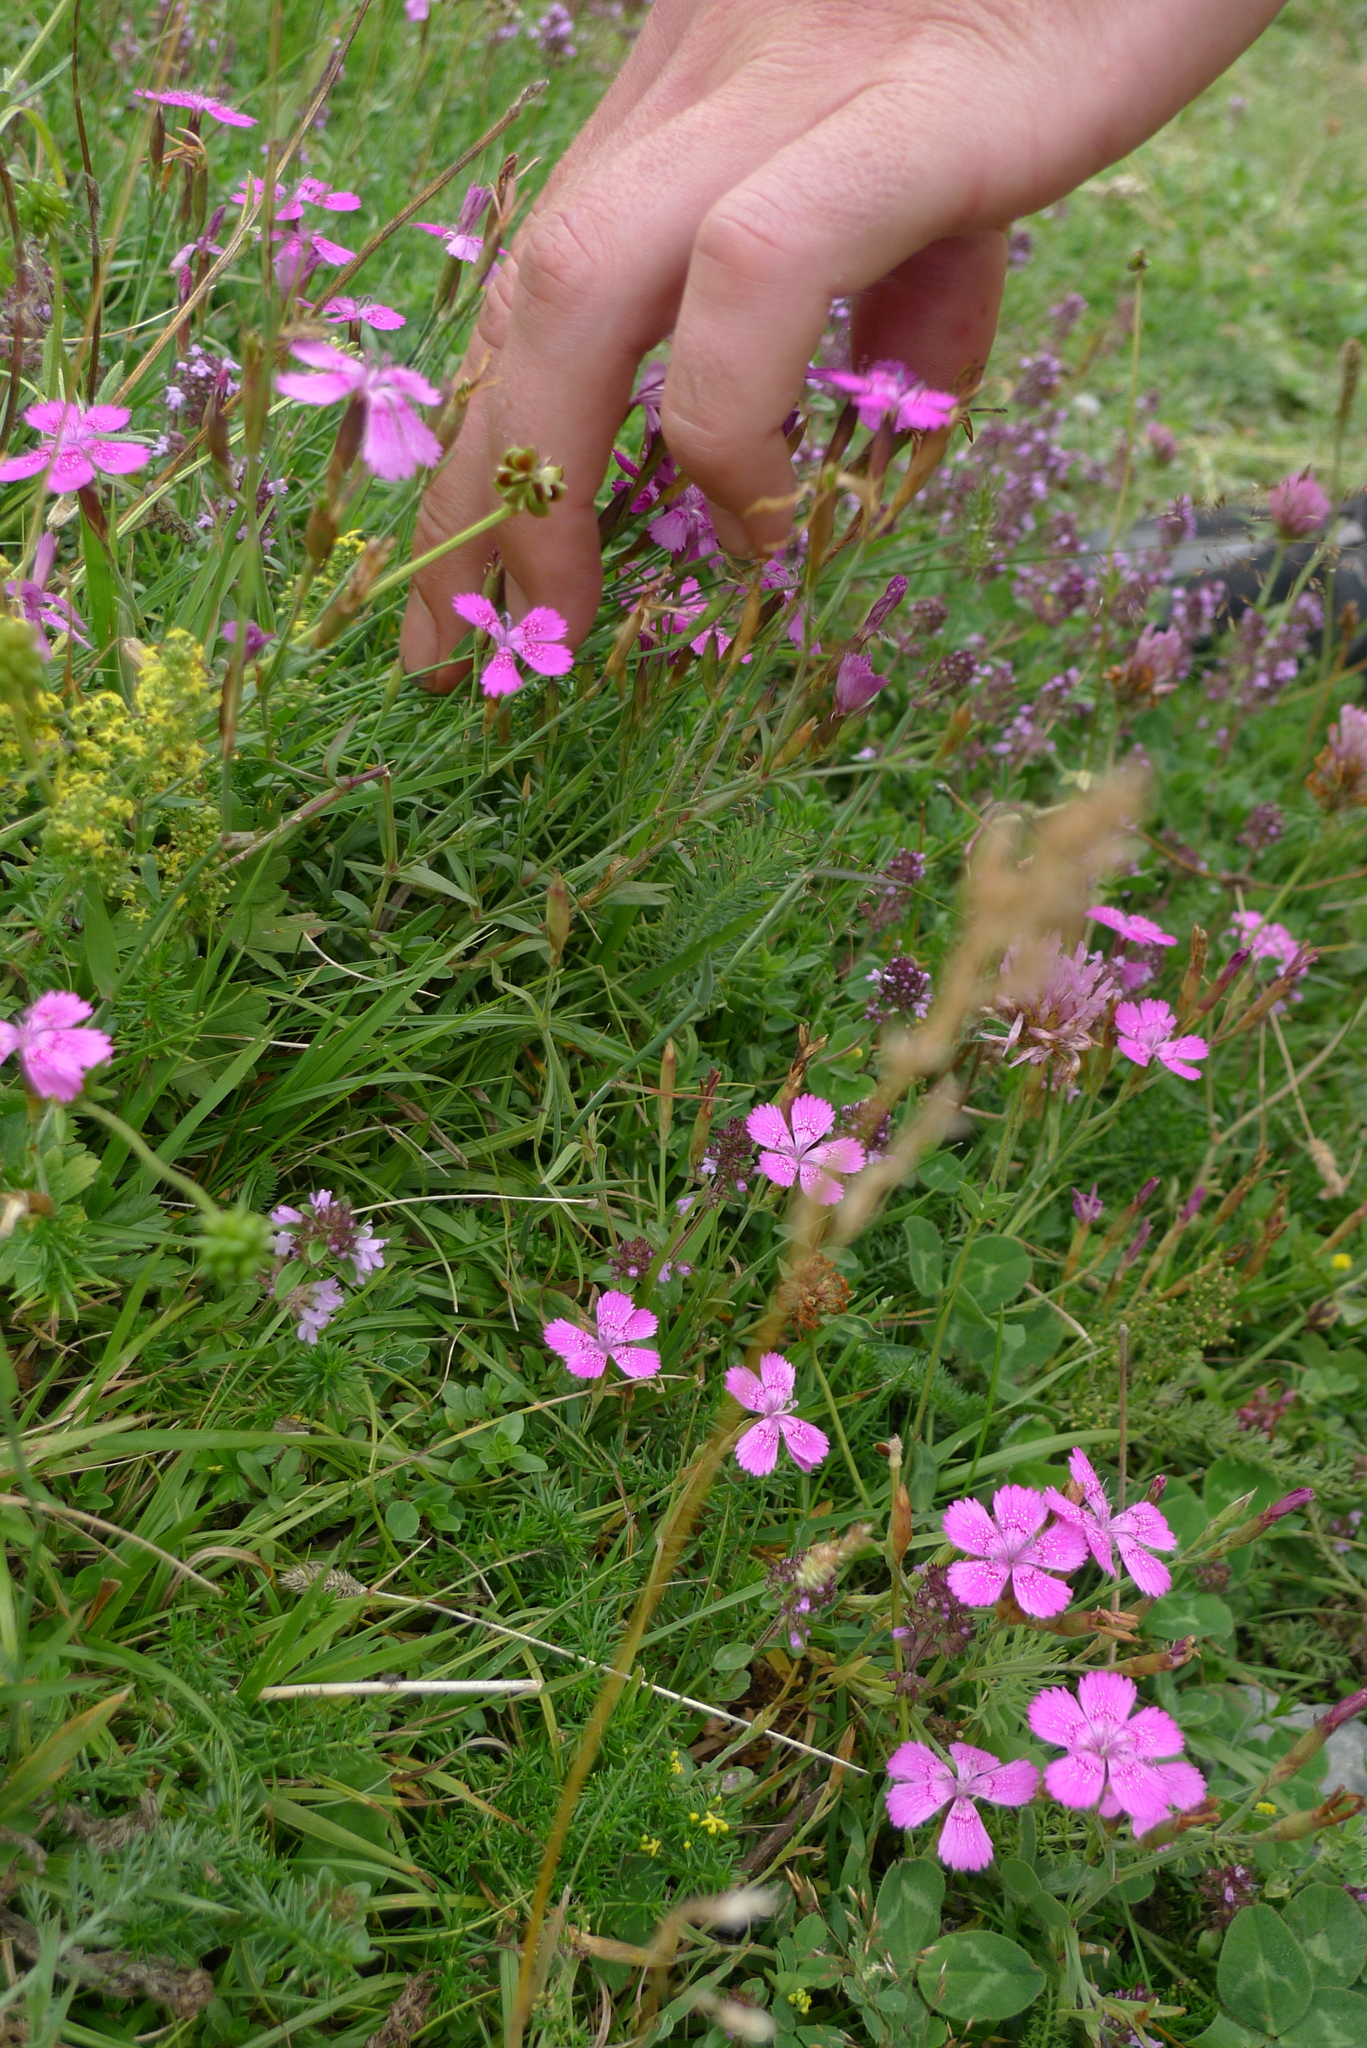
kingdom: Plantae
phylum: Tracheophyta
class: Magnoliopsida
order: Caryophyllales
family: Caryophyllaceae
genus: Dianthus
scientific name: Dianthus deltoides
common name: Maiden pink
